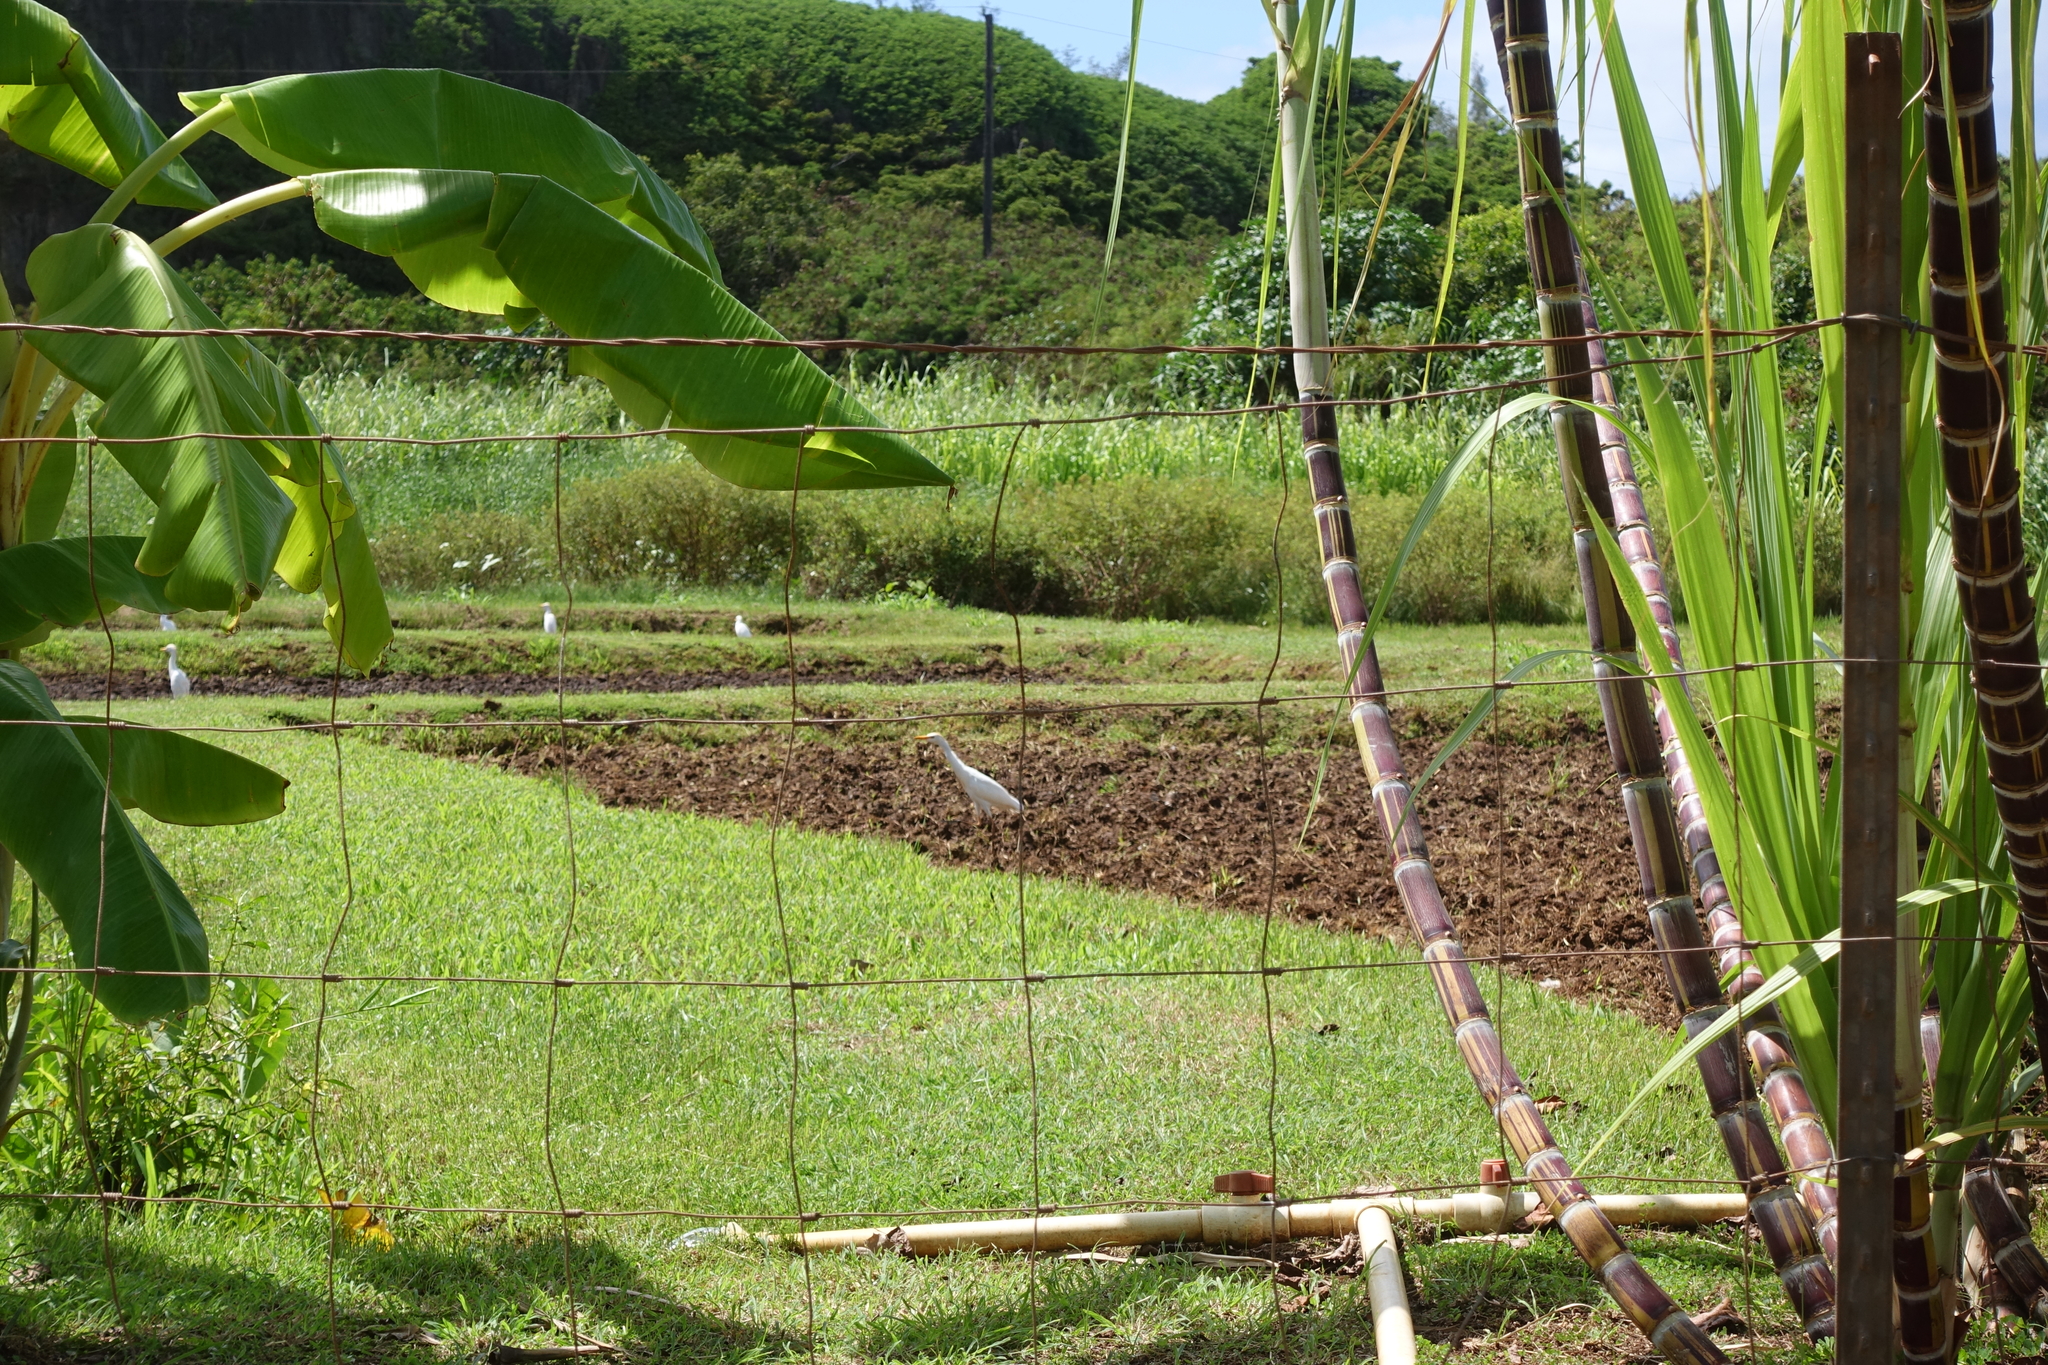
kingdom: Animalia
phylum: Chordata
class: Aves
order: Pelecaniformes
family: Ardeidae
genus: Bubulcus
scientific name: Bubulcus ibis
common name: Cattle egret
